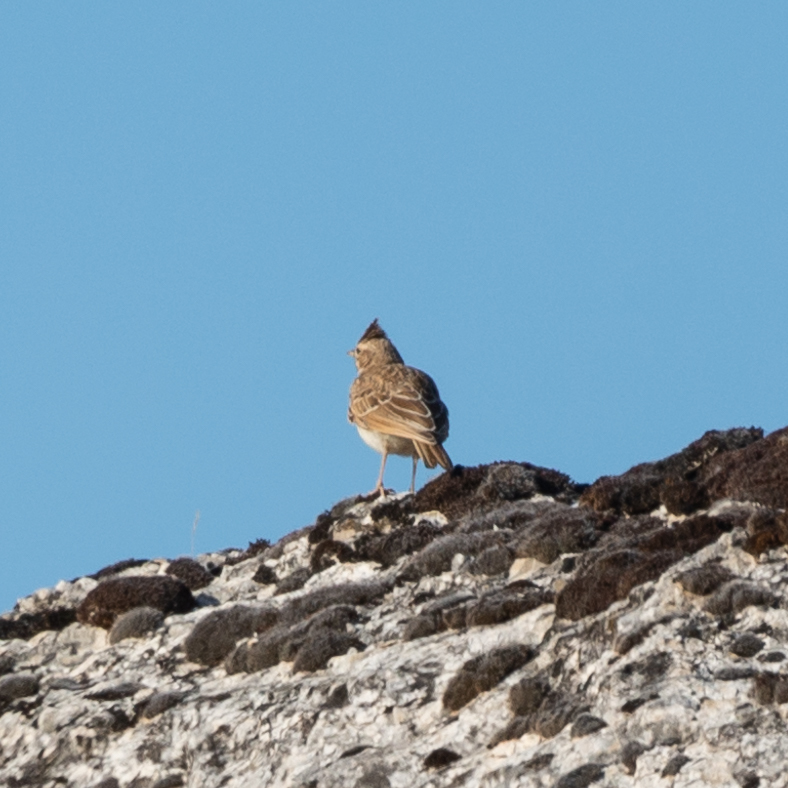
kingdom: Animalia
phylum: Chordata
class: Aves
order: Passeriformes
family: Alaudidae
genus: Galerida
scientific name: Galerida cristata
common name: Crested lark
